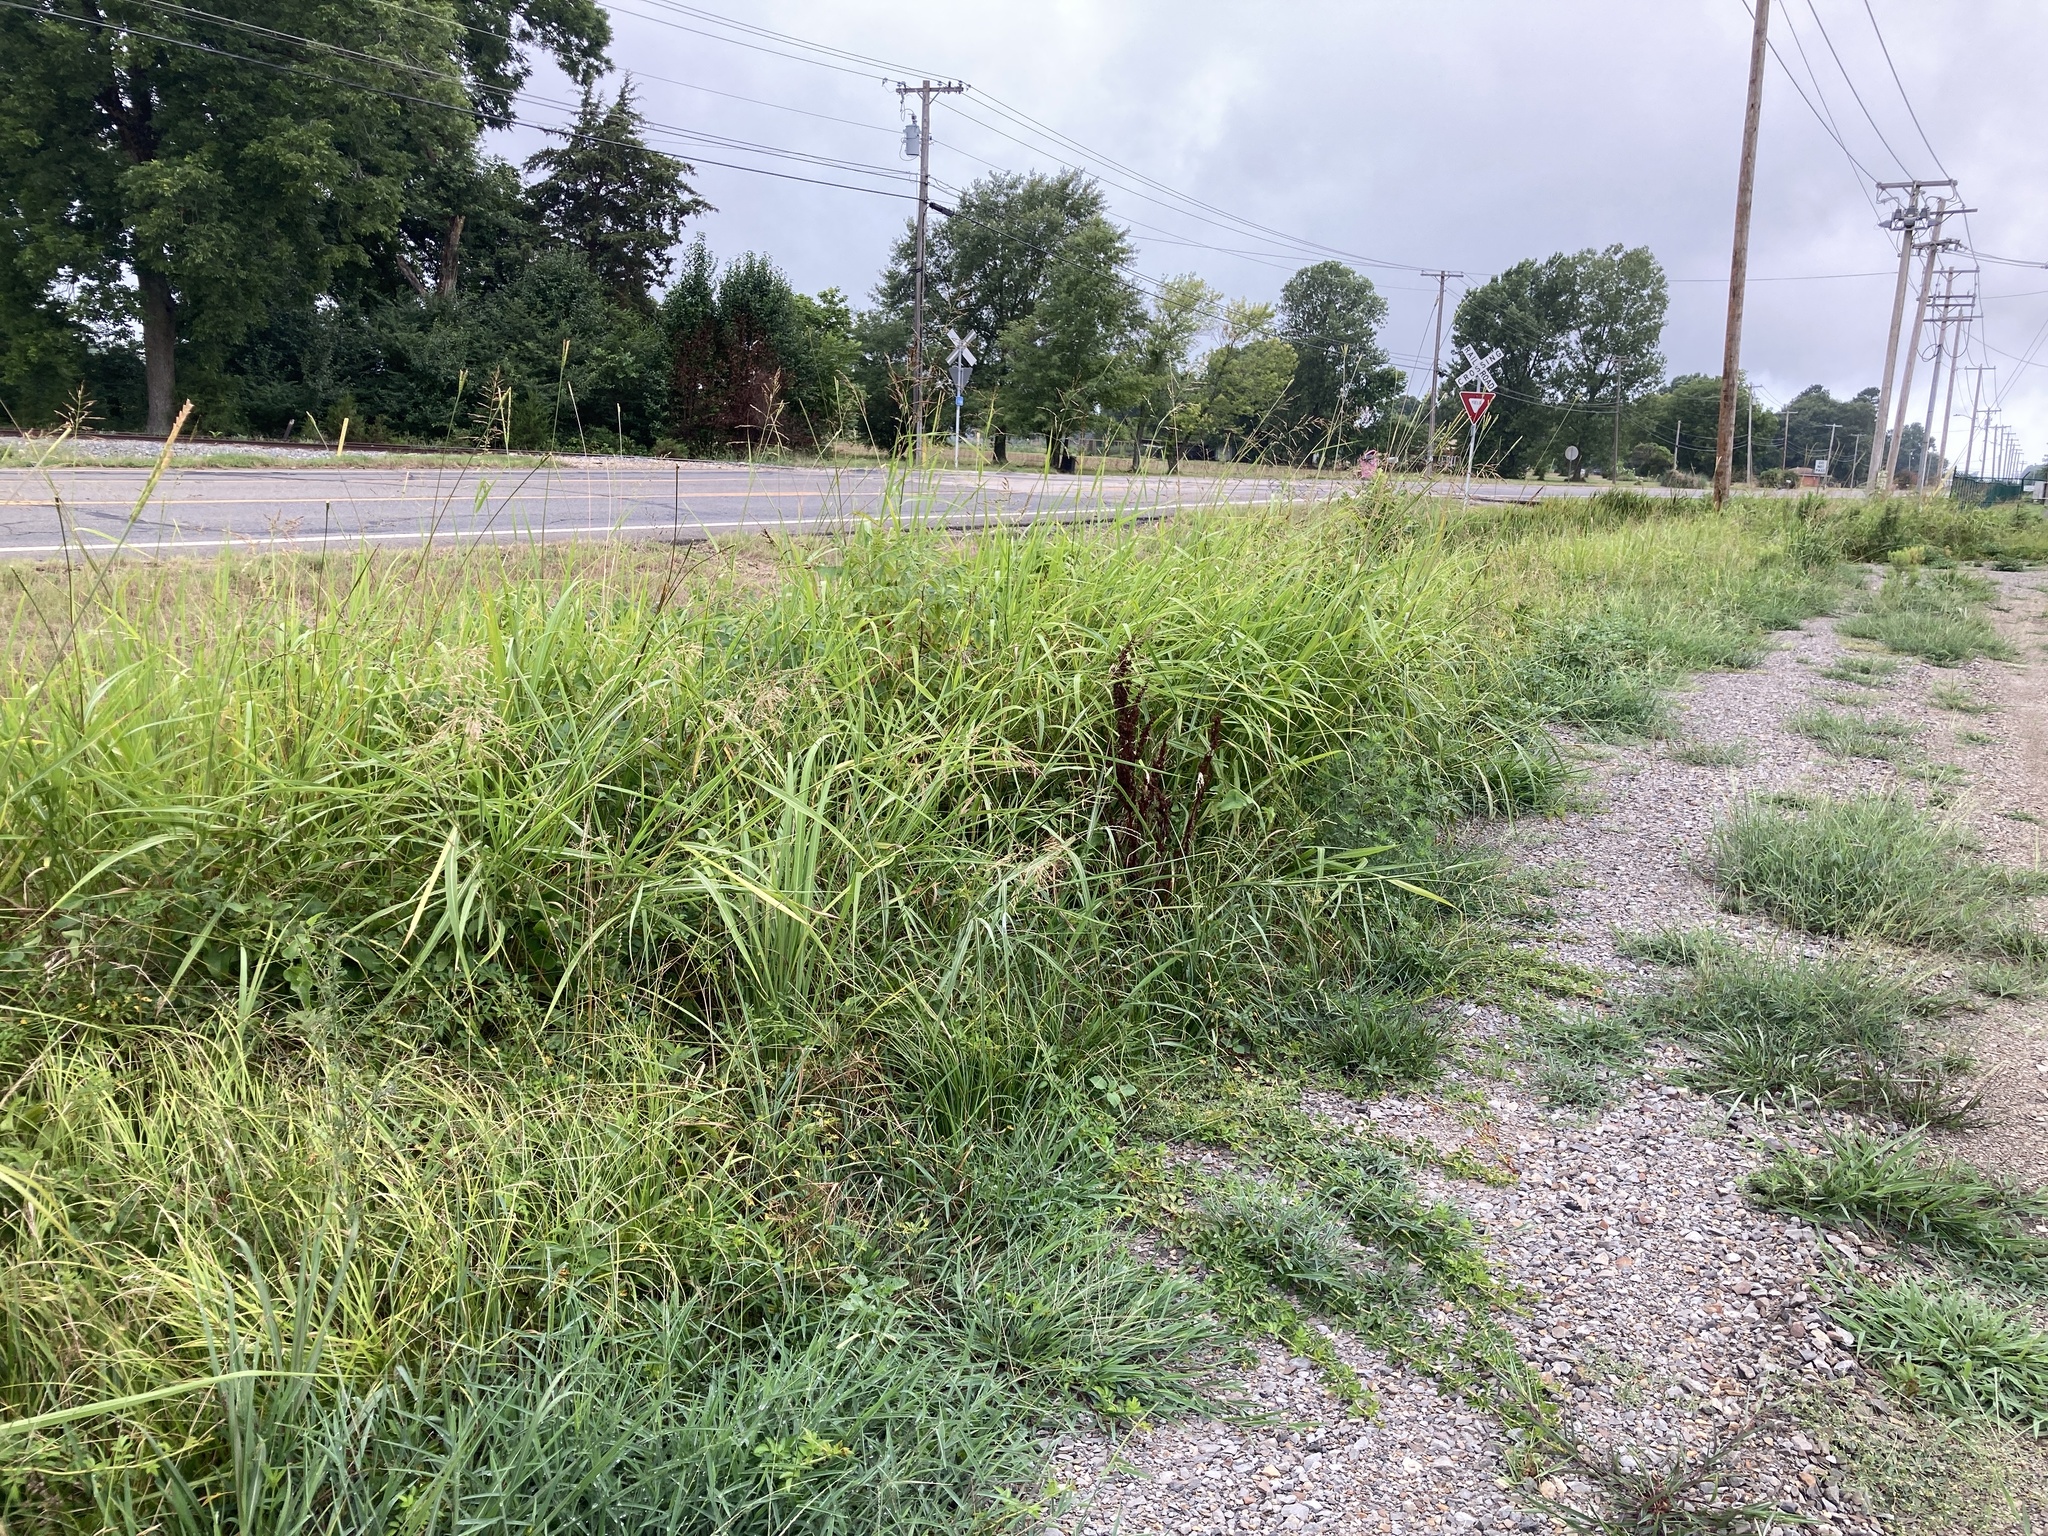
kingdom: Plantae
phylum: Tracheophyta
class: Liliopsida
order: Poales
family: Poaceae
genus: Tripsacum
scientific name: Tripsacum dactyloides
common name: Buffalo-grass
